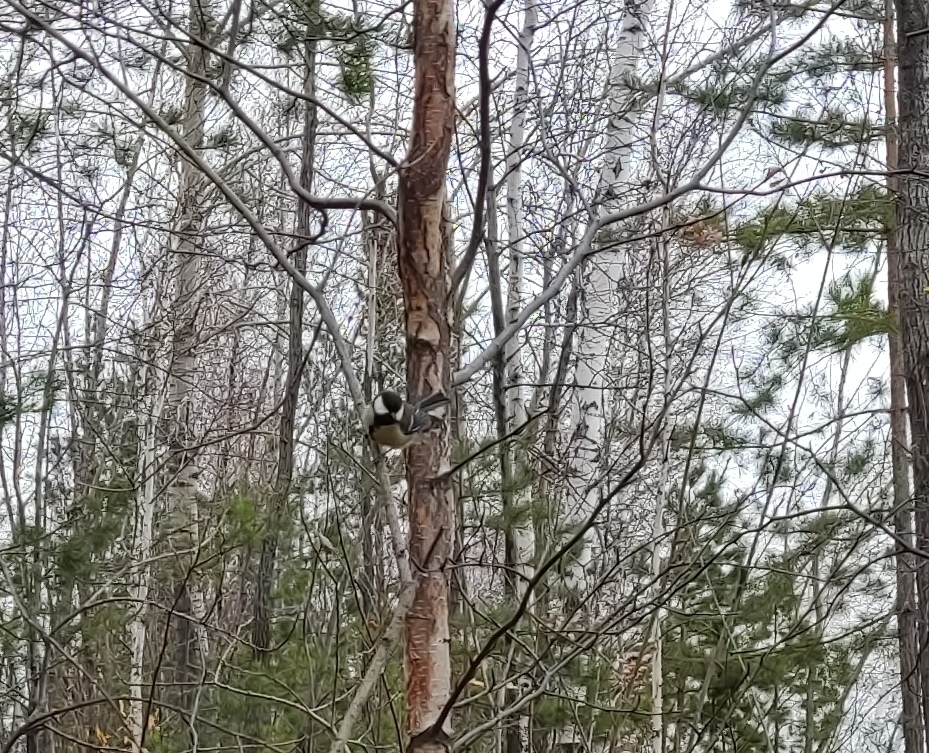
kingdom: Animalia
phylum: Chordata
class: Aves
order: Passeriformes
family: Paridae
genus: Parus
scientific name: Parus major
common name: Great tit
